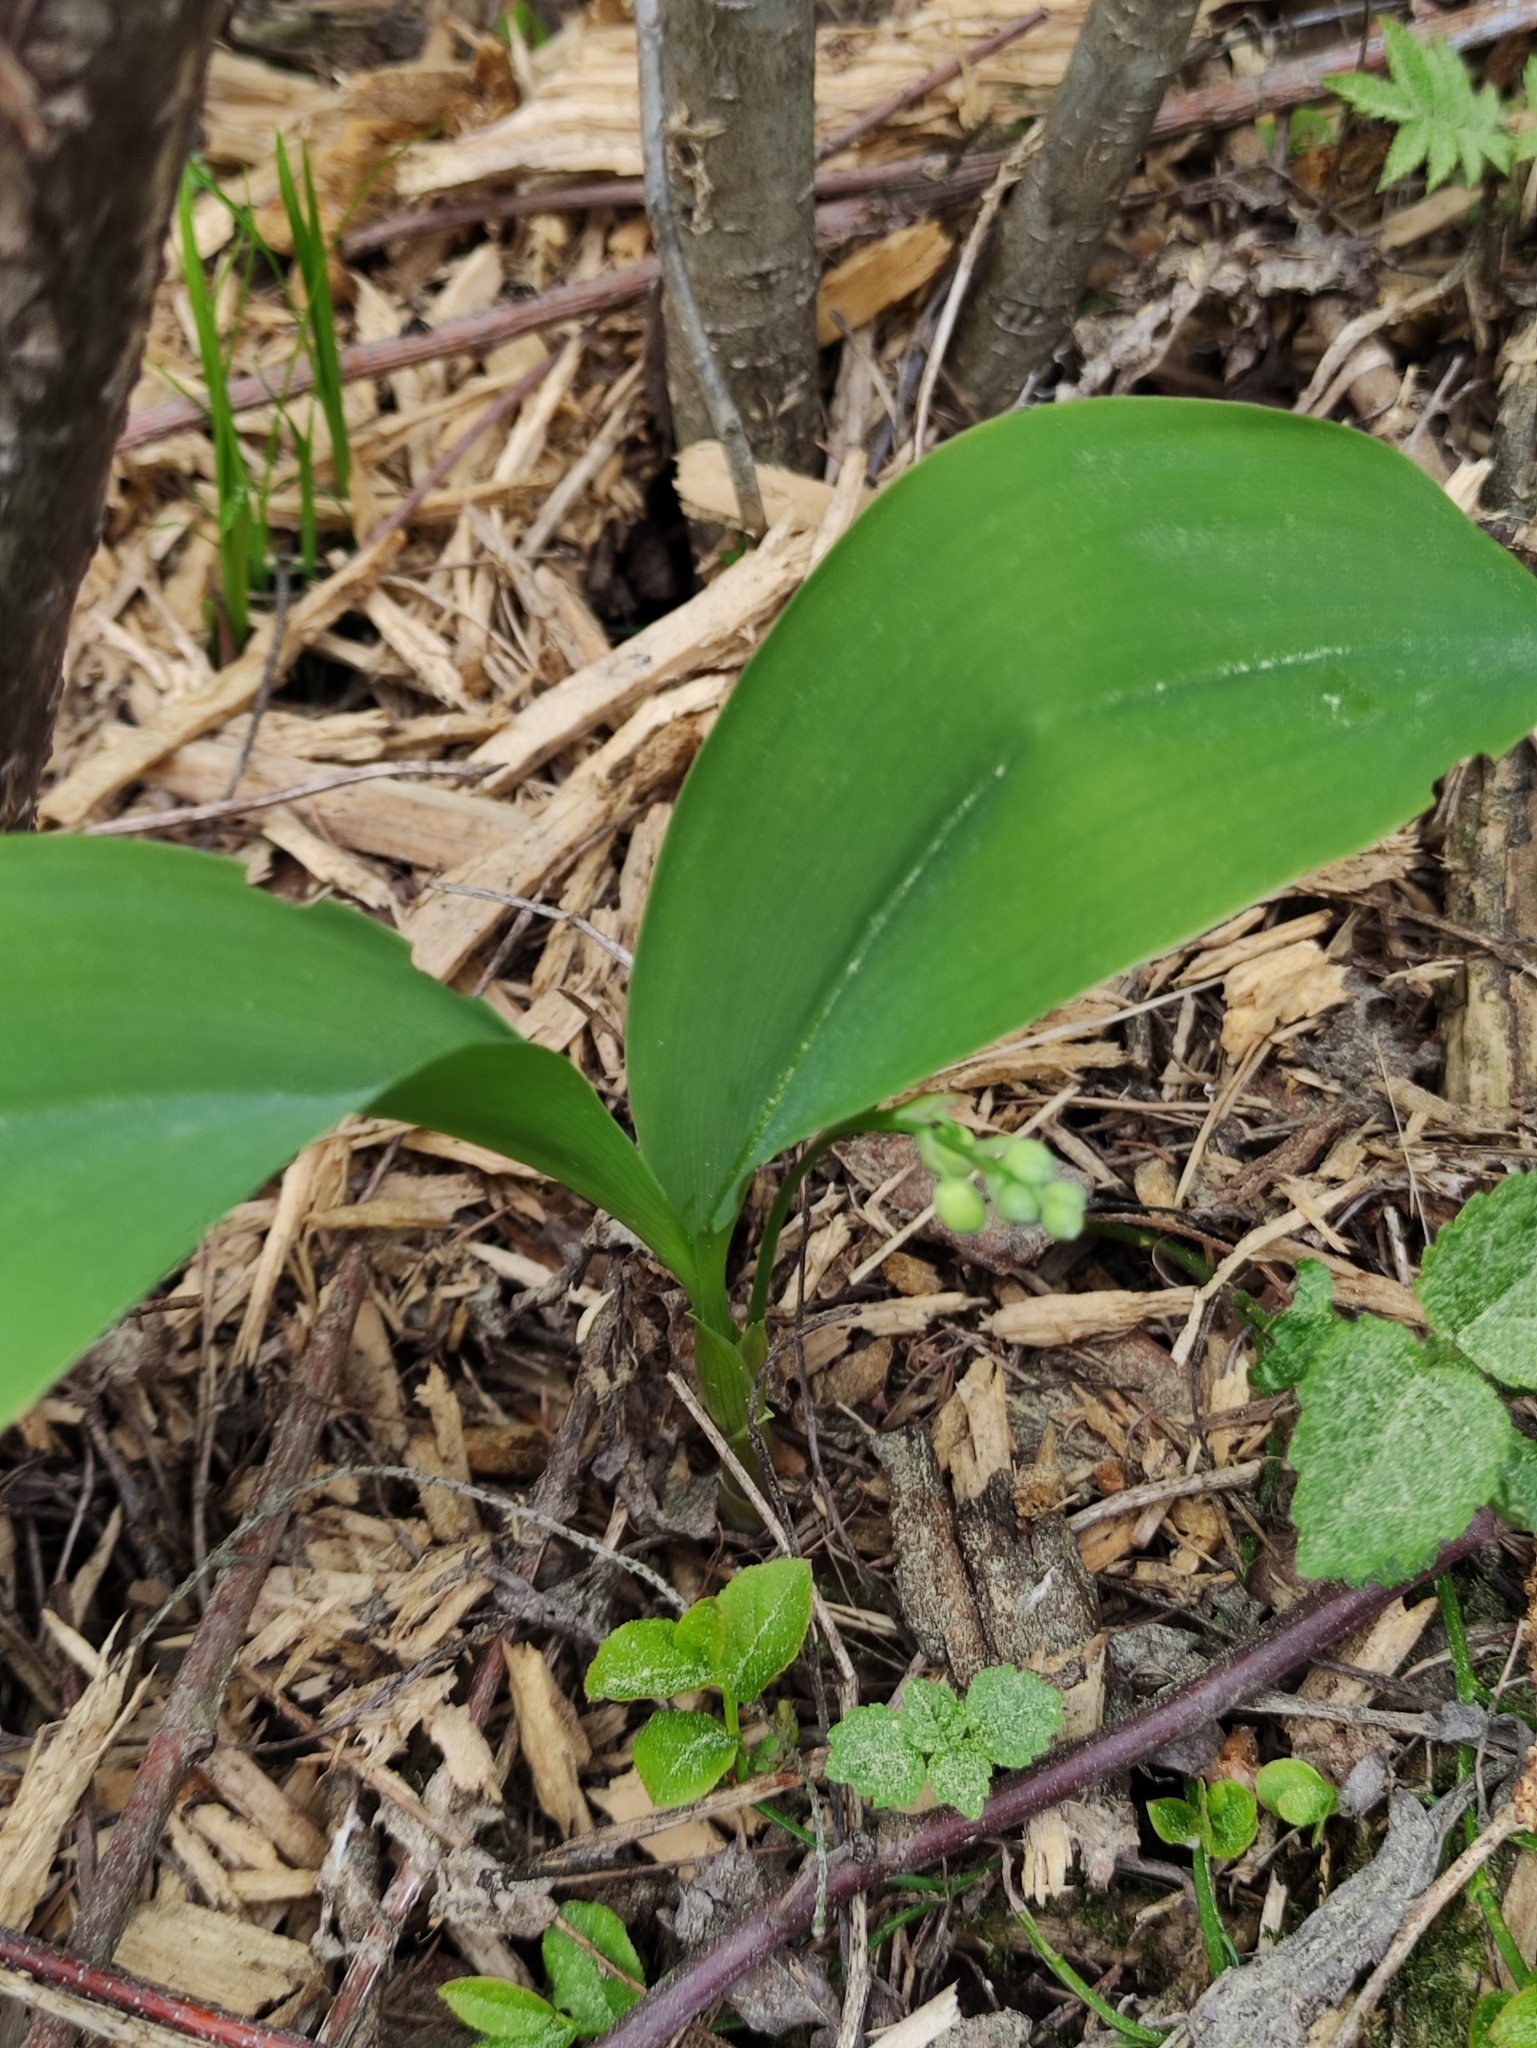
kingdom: Plantae
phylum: Tracheophyta
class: Liliopsida
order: Asparagales
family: Asparagaceae
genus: Convallaria
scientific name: Convallaria majalis
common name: Lily-of-the-valley
